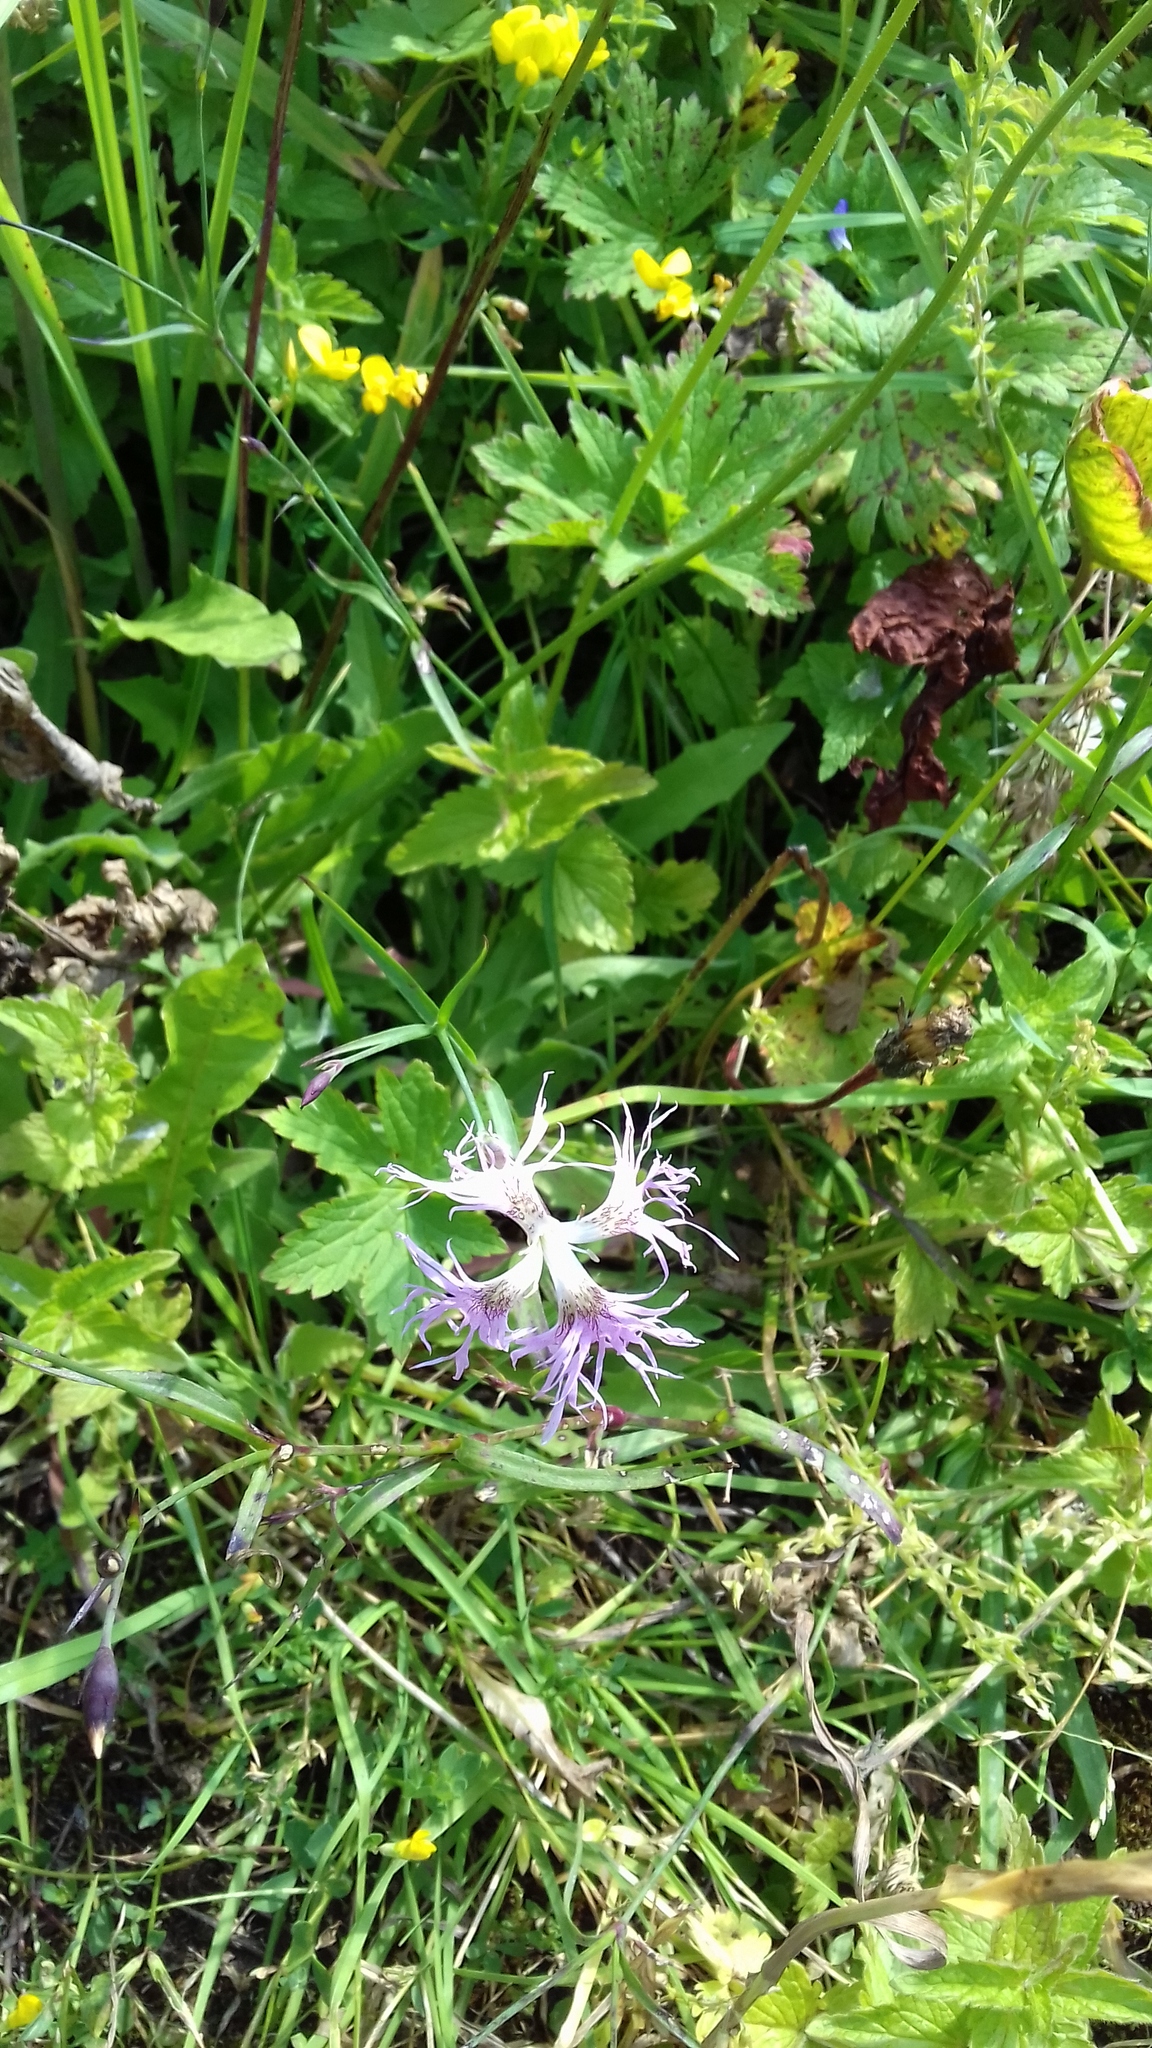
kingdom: Plantae
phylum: Tracheophyta
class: Magnoliopsida
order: Caryophyllales
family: Caryophyllaceae
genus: Dianthus
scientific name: Dianthus superbus
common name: Fringed pink
